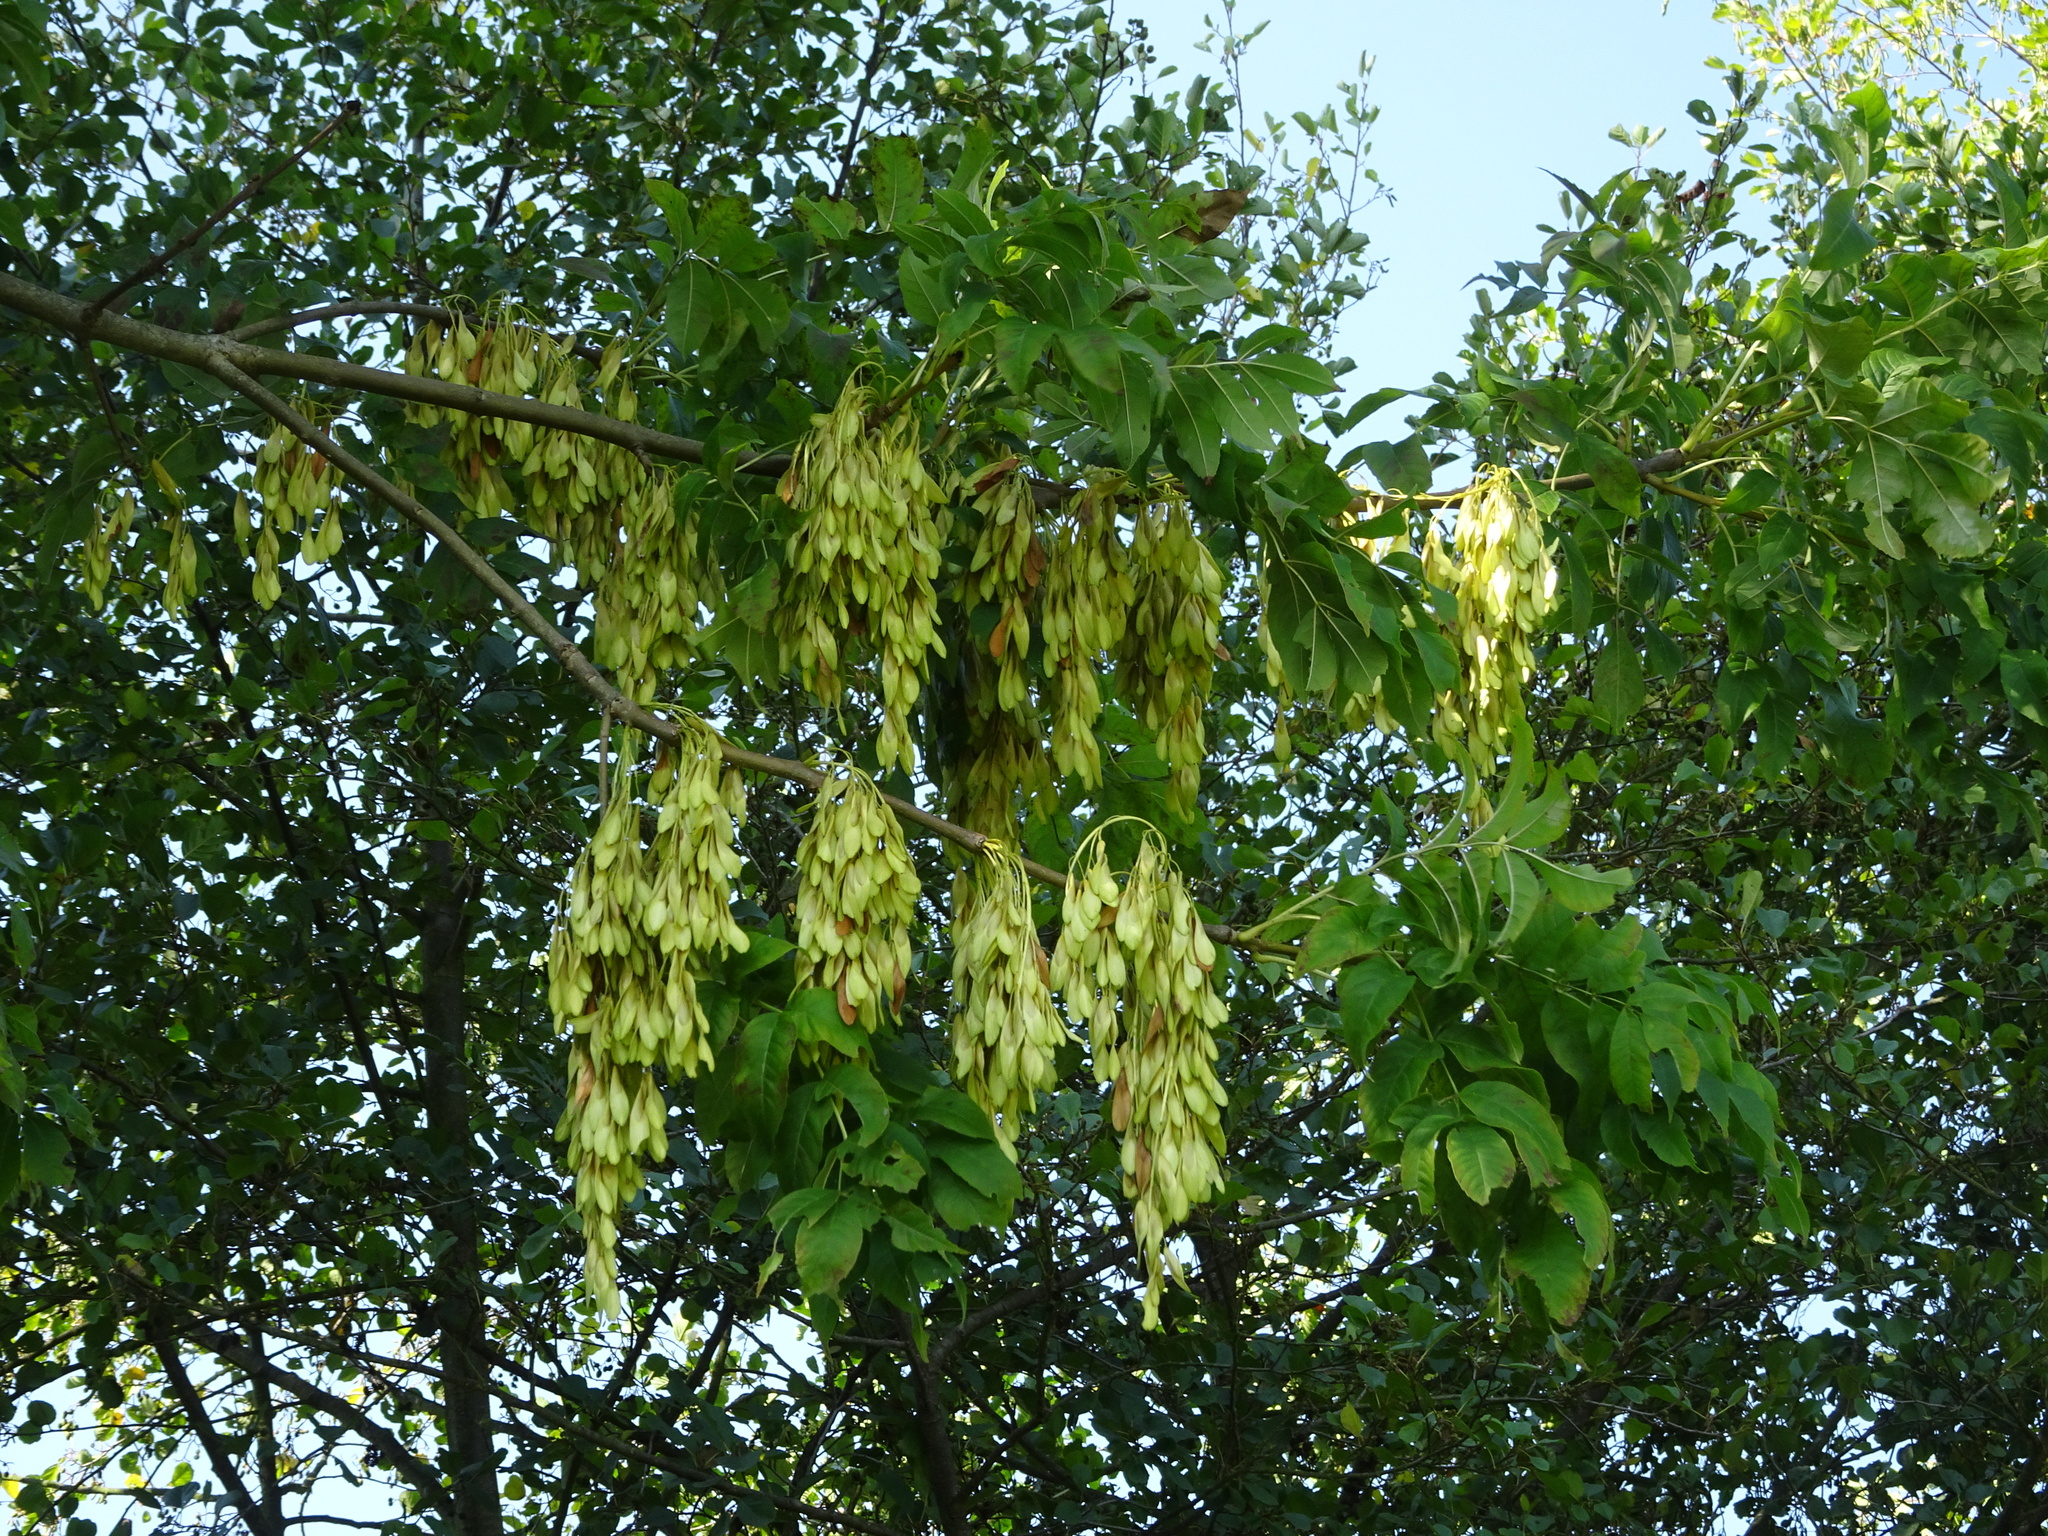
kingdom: Plantae
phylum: Tracheophyta
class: Magnoliopsida
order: Lamiales
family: Oleaceae
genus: Fraxinus
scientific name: Fraxinus excelsior
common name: European ash
